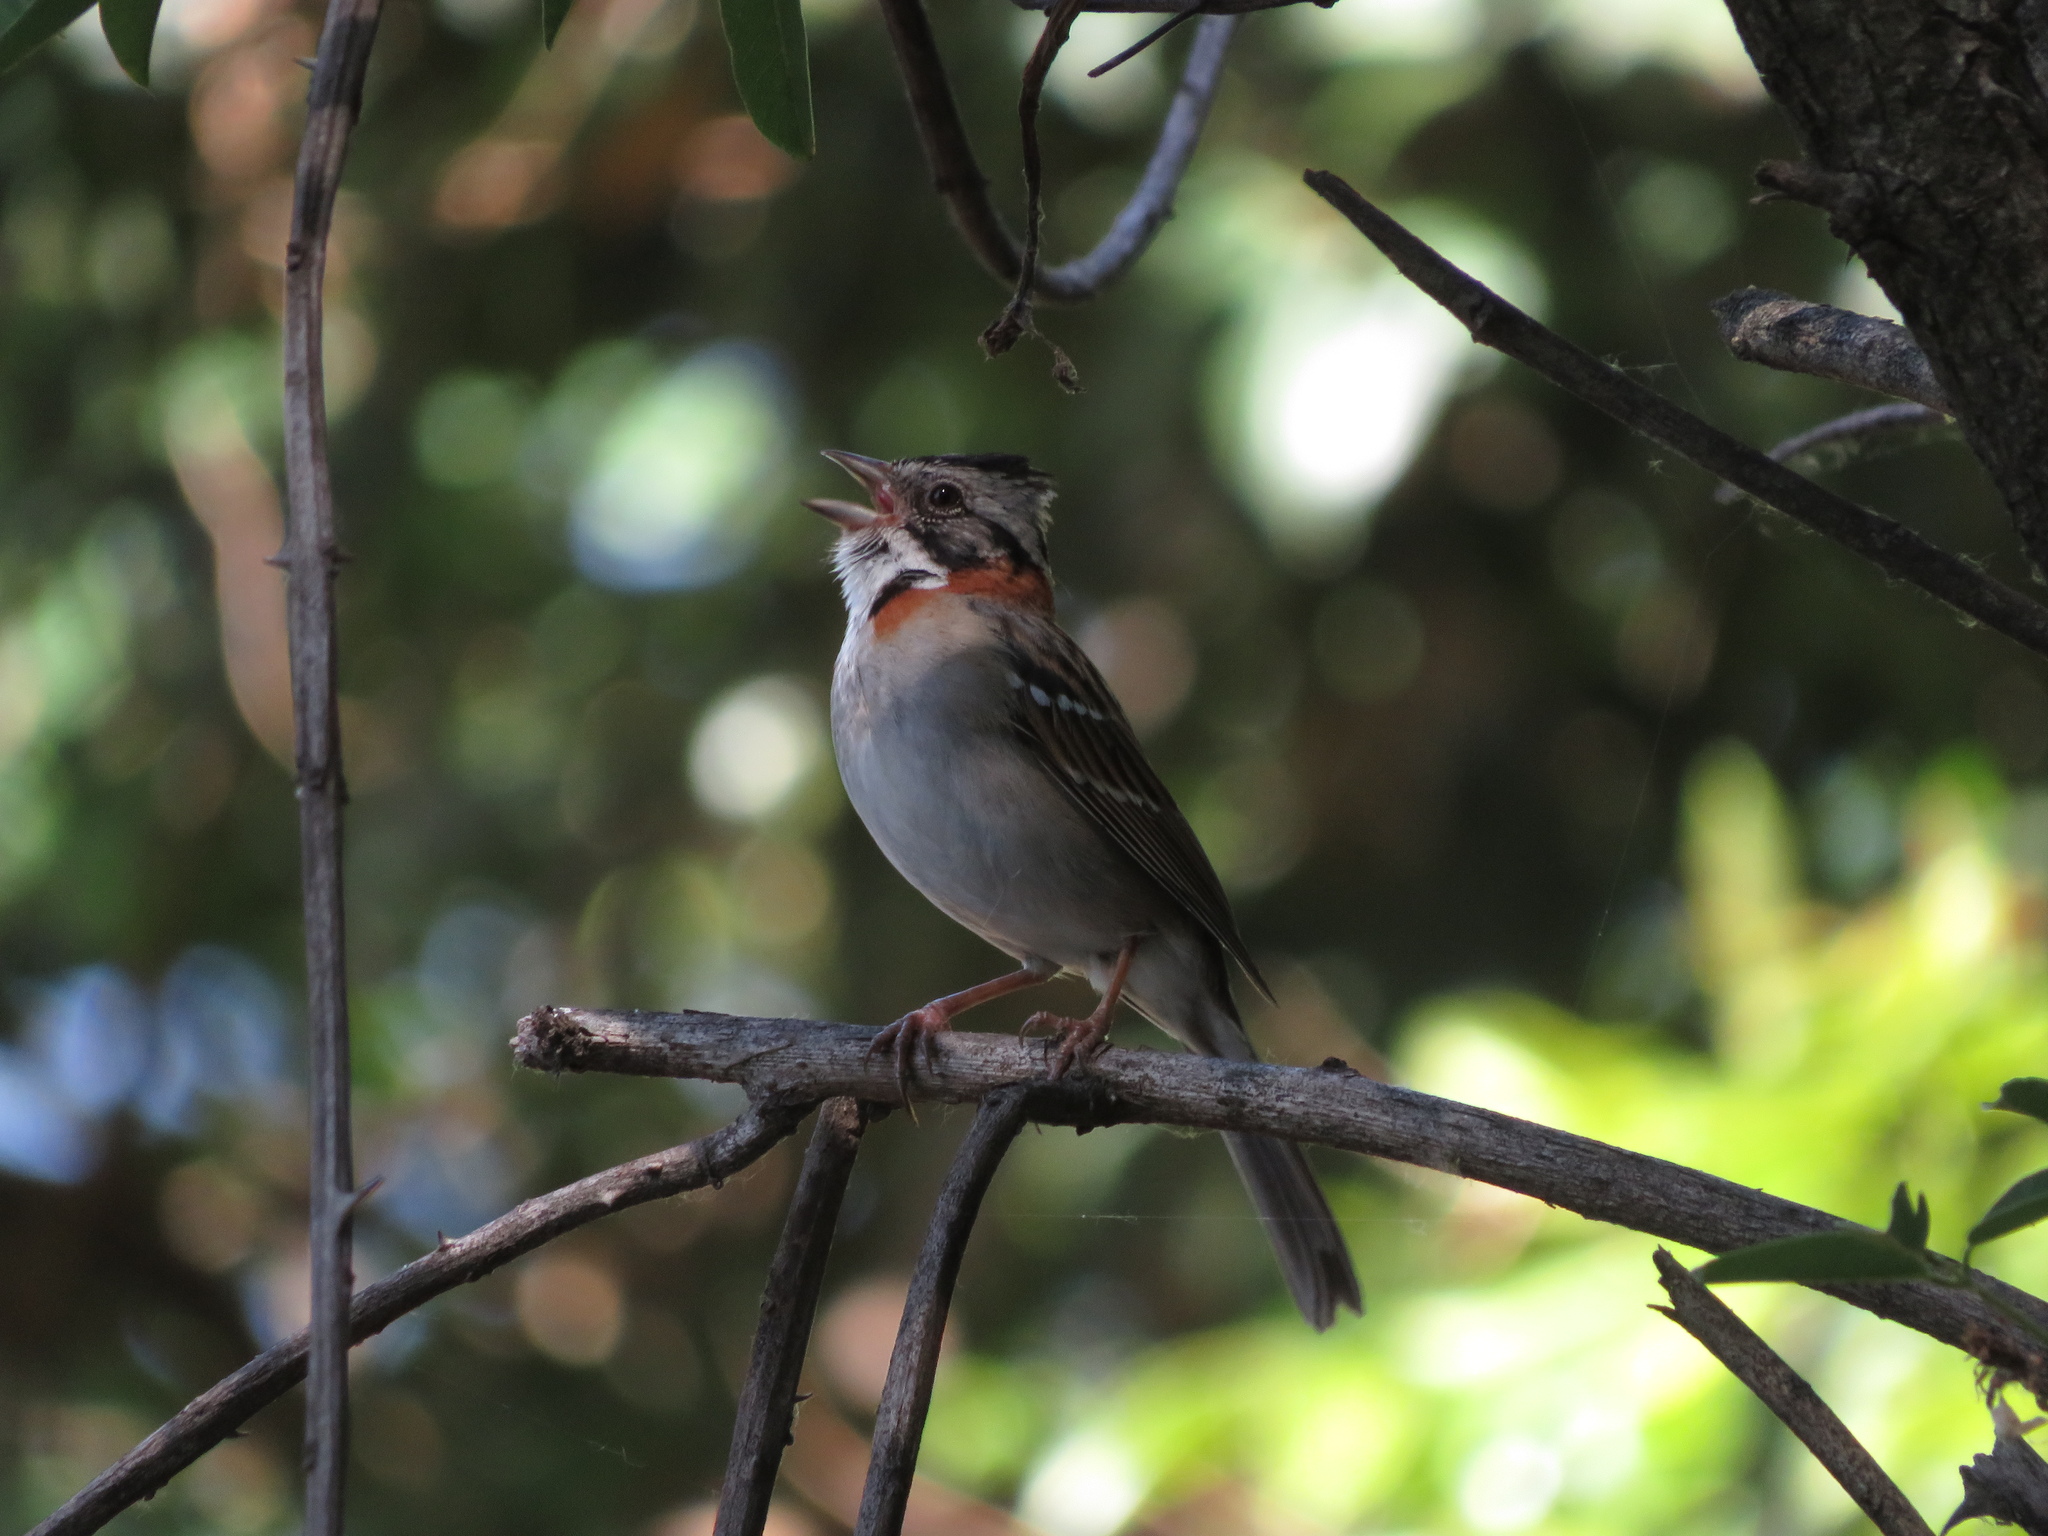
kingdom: Animalia
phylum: Chordata
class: Aves
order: Passeriformes
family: Passerellidae
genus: Zonotrichia
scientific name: Zonotrichia capensis
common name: Rufous-collared sparrow
